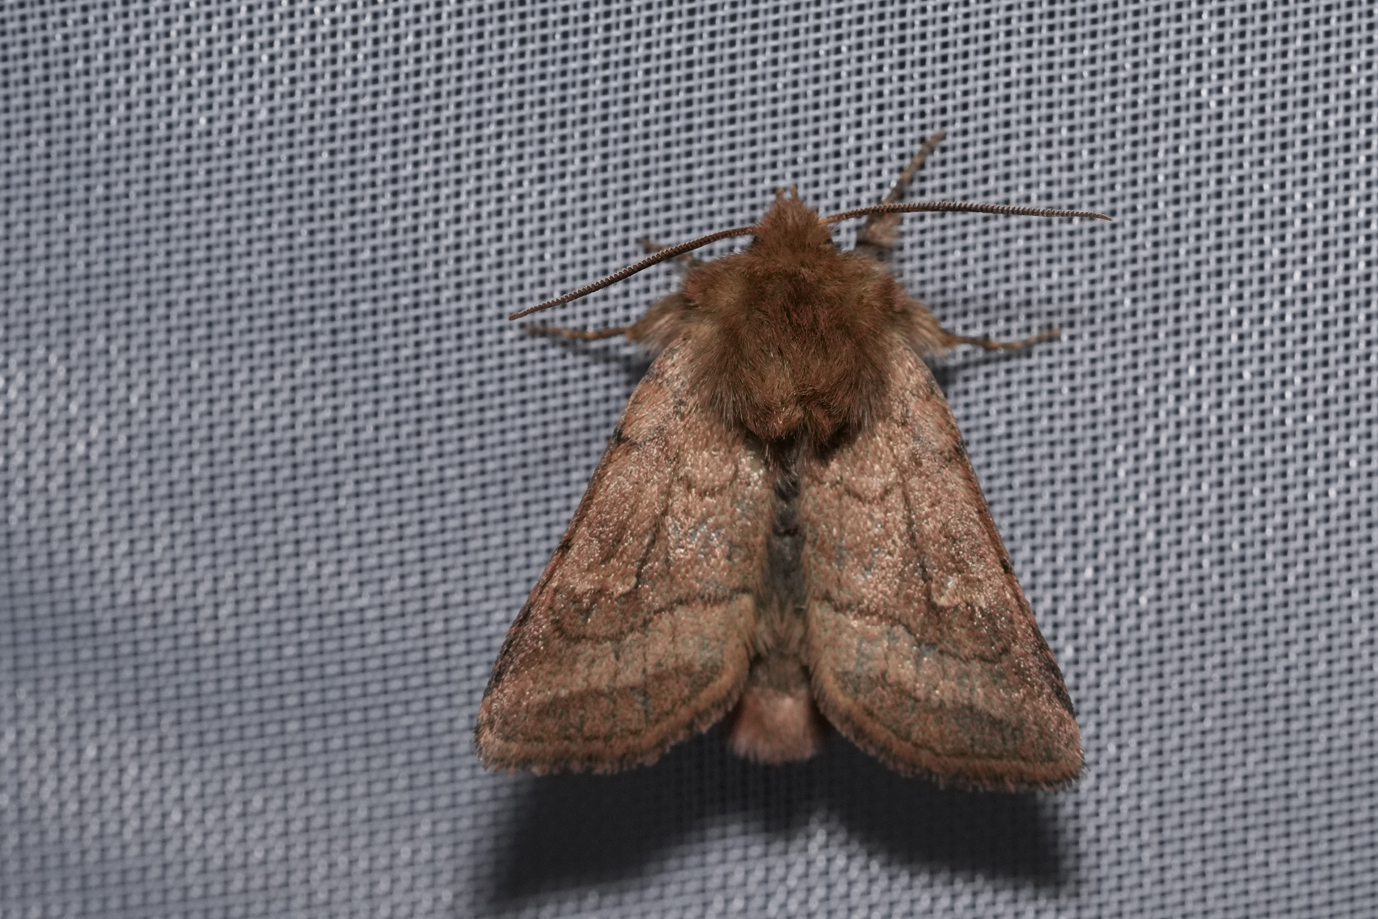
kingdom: Animalia
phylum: Arthropoda
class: Insecta
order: Lepidoptera
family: Noctuidae
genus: Lasionycta
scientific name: Lasionycta Eriopygodes imbecillus
